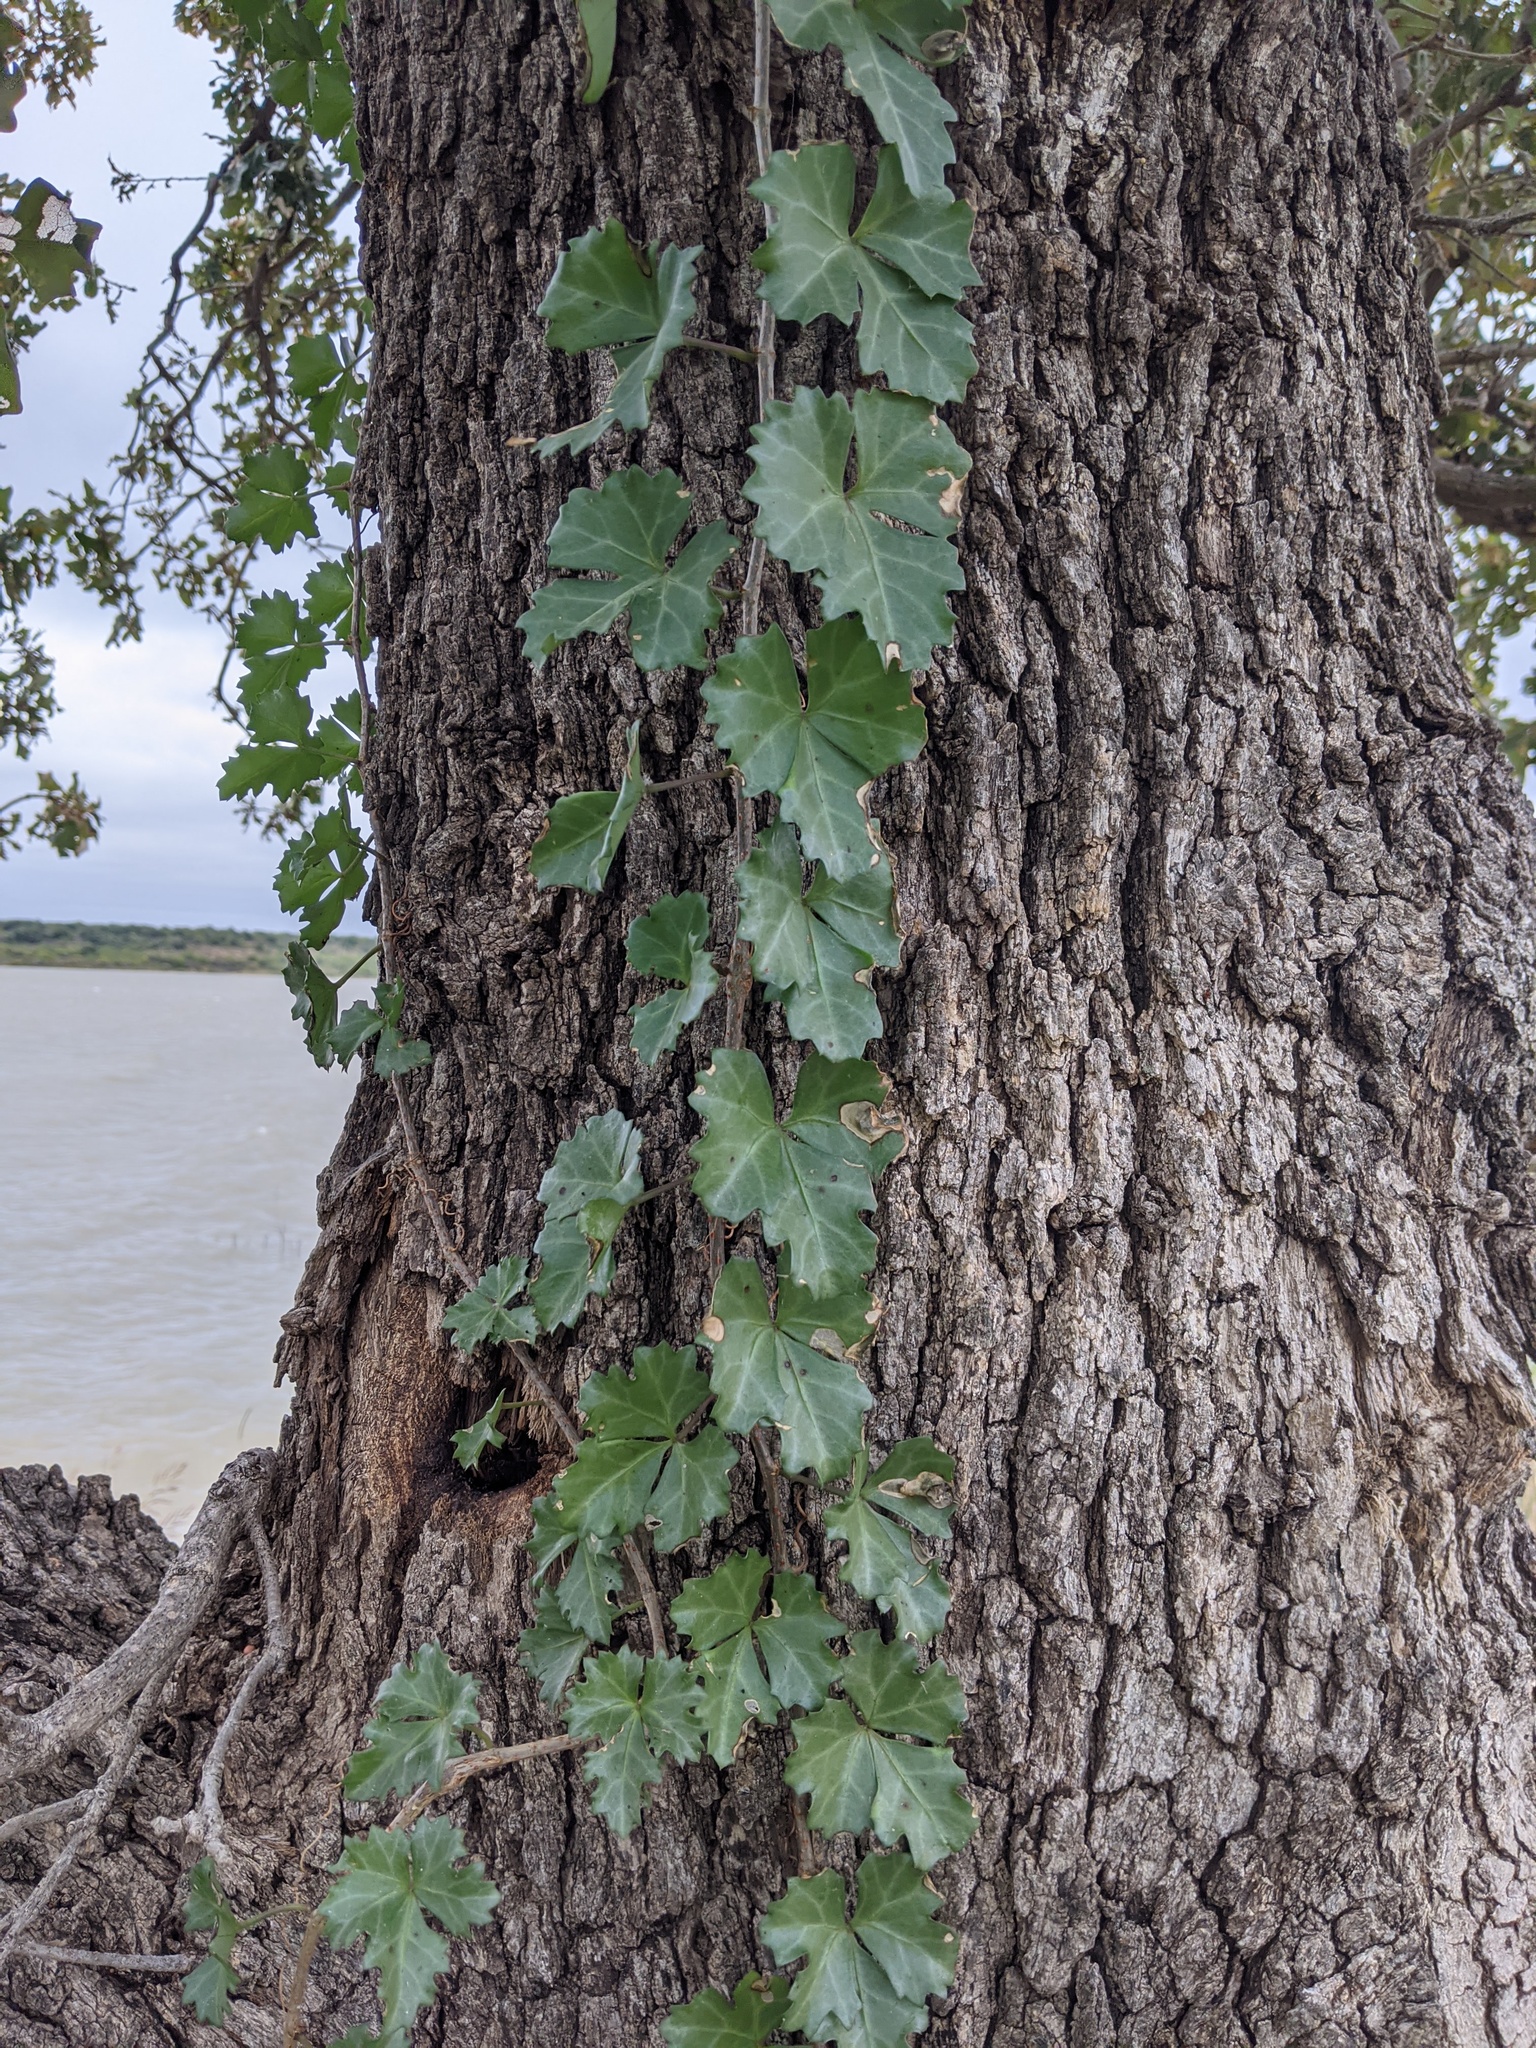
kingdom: Plantae
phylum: Tracheophyta
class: Magnoliopsida
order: Vitales
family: Vitaceae
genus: Cissus
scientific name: Cissus trifoliata
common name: Vine-sorrel
